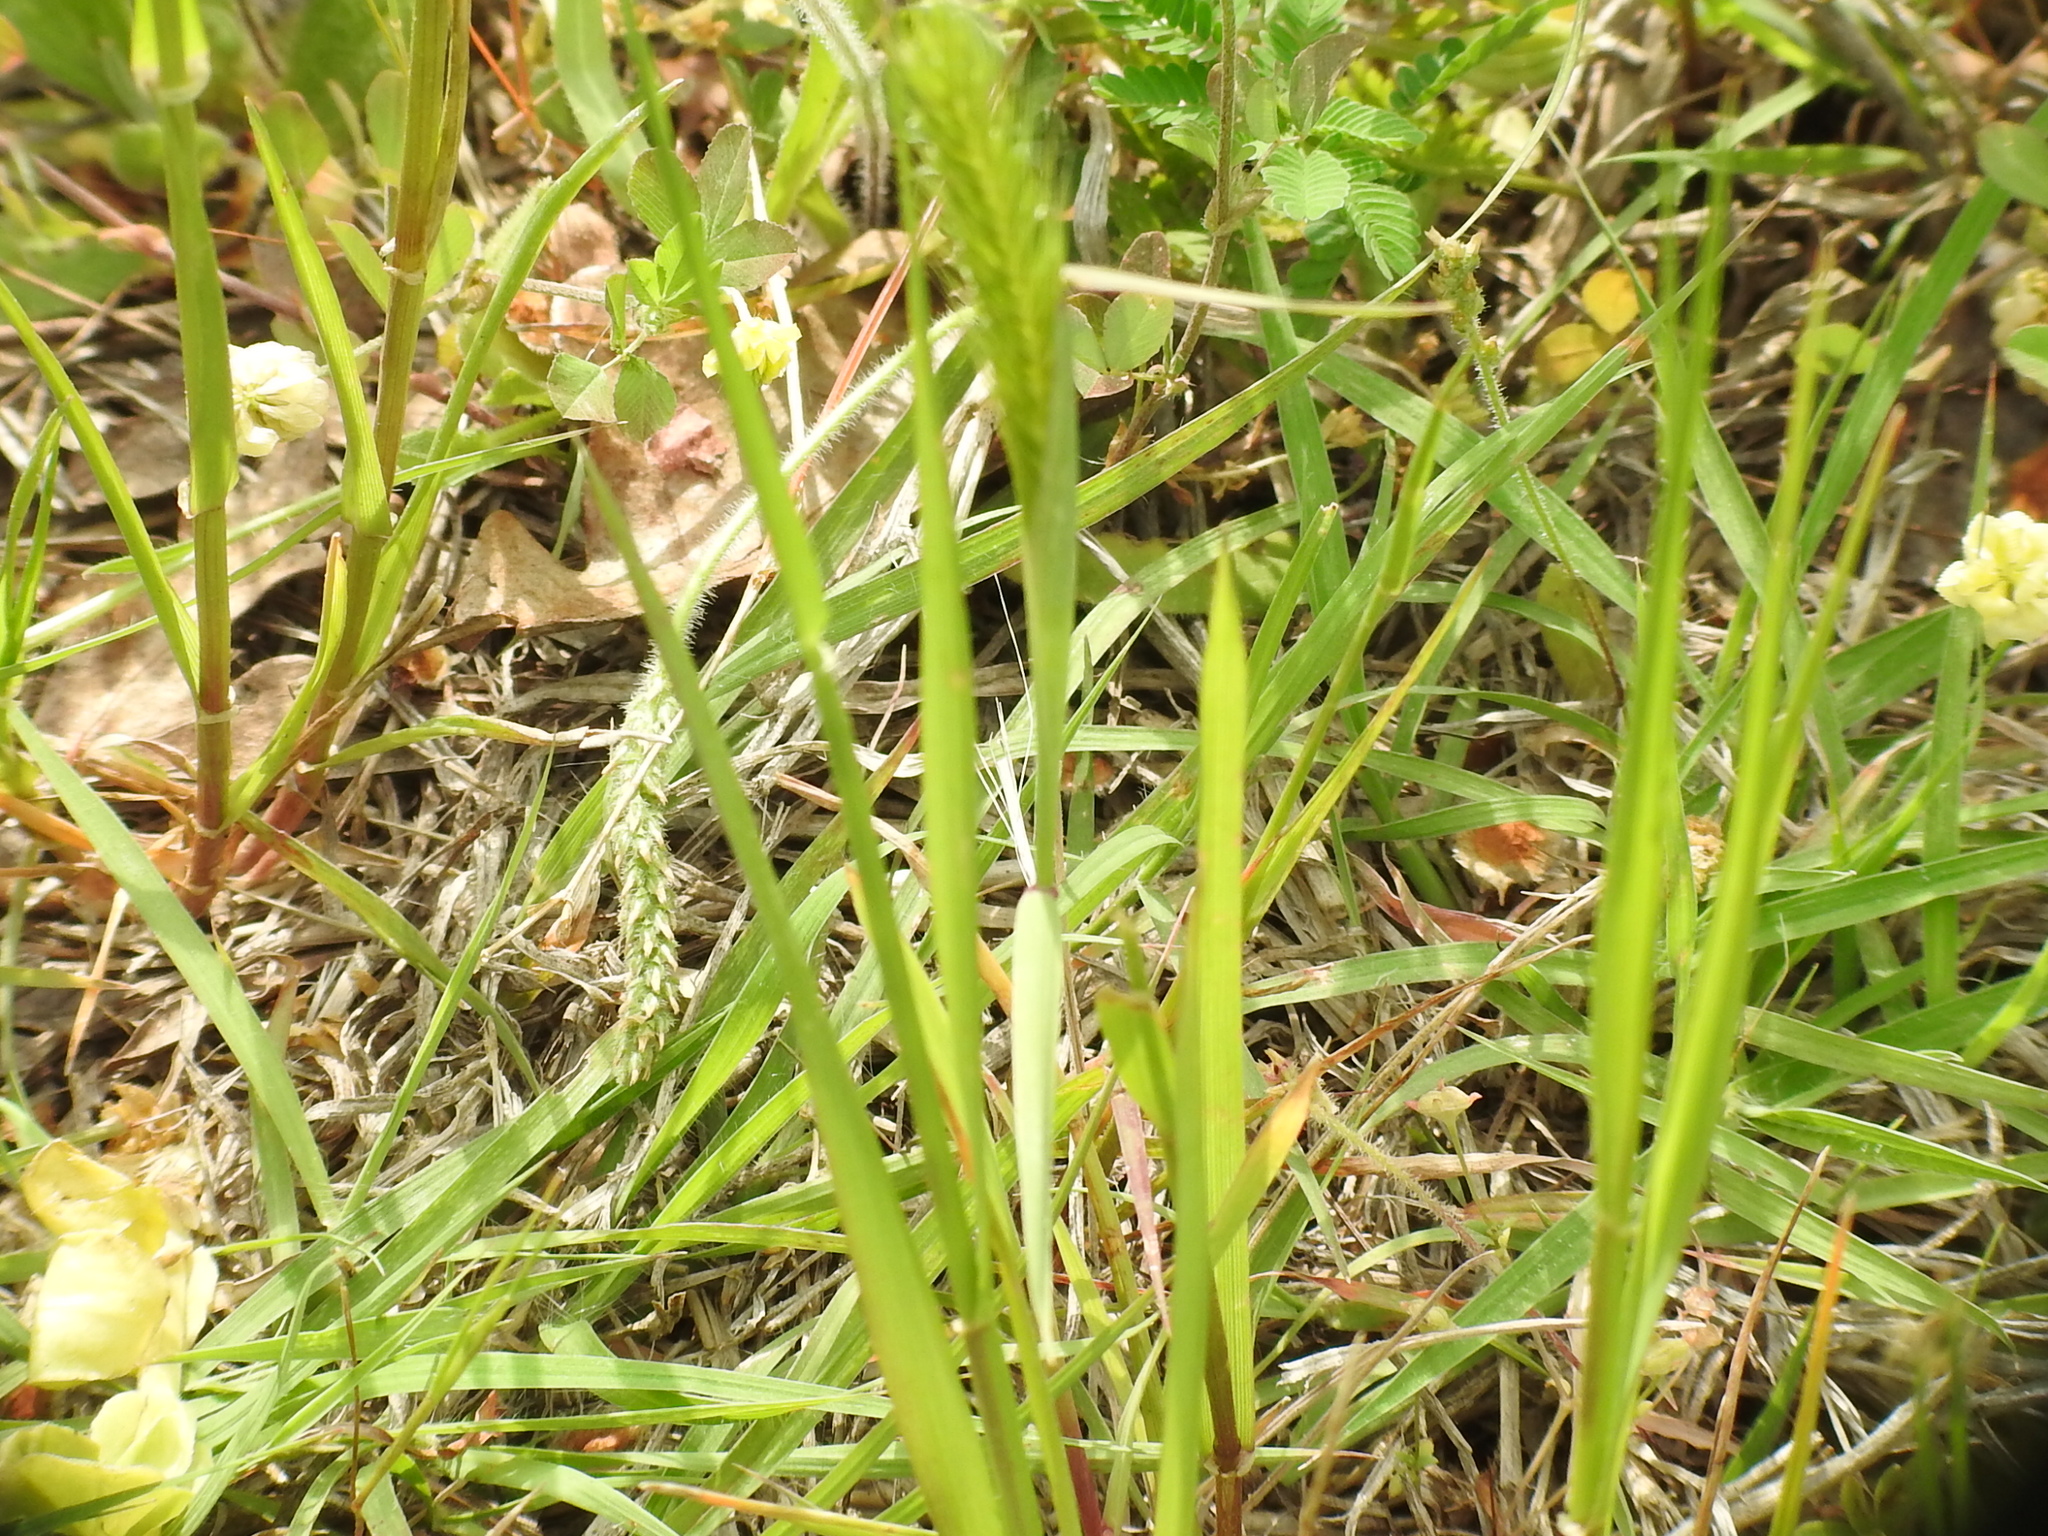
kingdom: Plantae
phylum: Tracheophyta
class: Liliopsida
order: Poales
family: Poaceae
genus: Hordeum
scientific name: Hordeum pusillum
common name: Little barley
